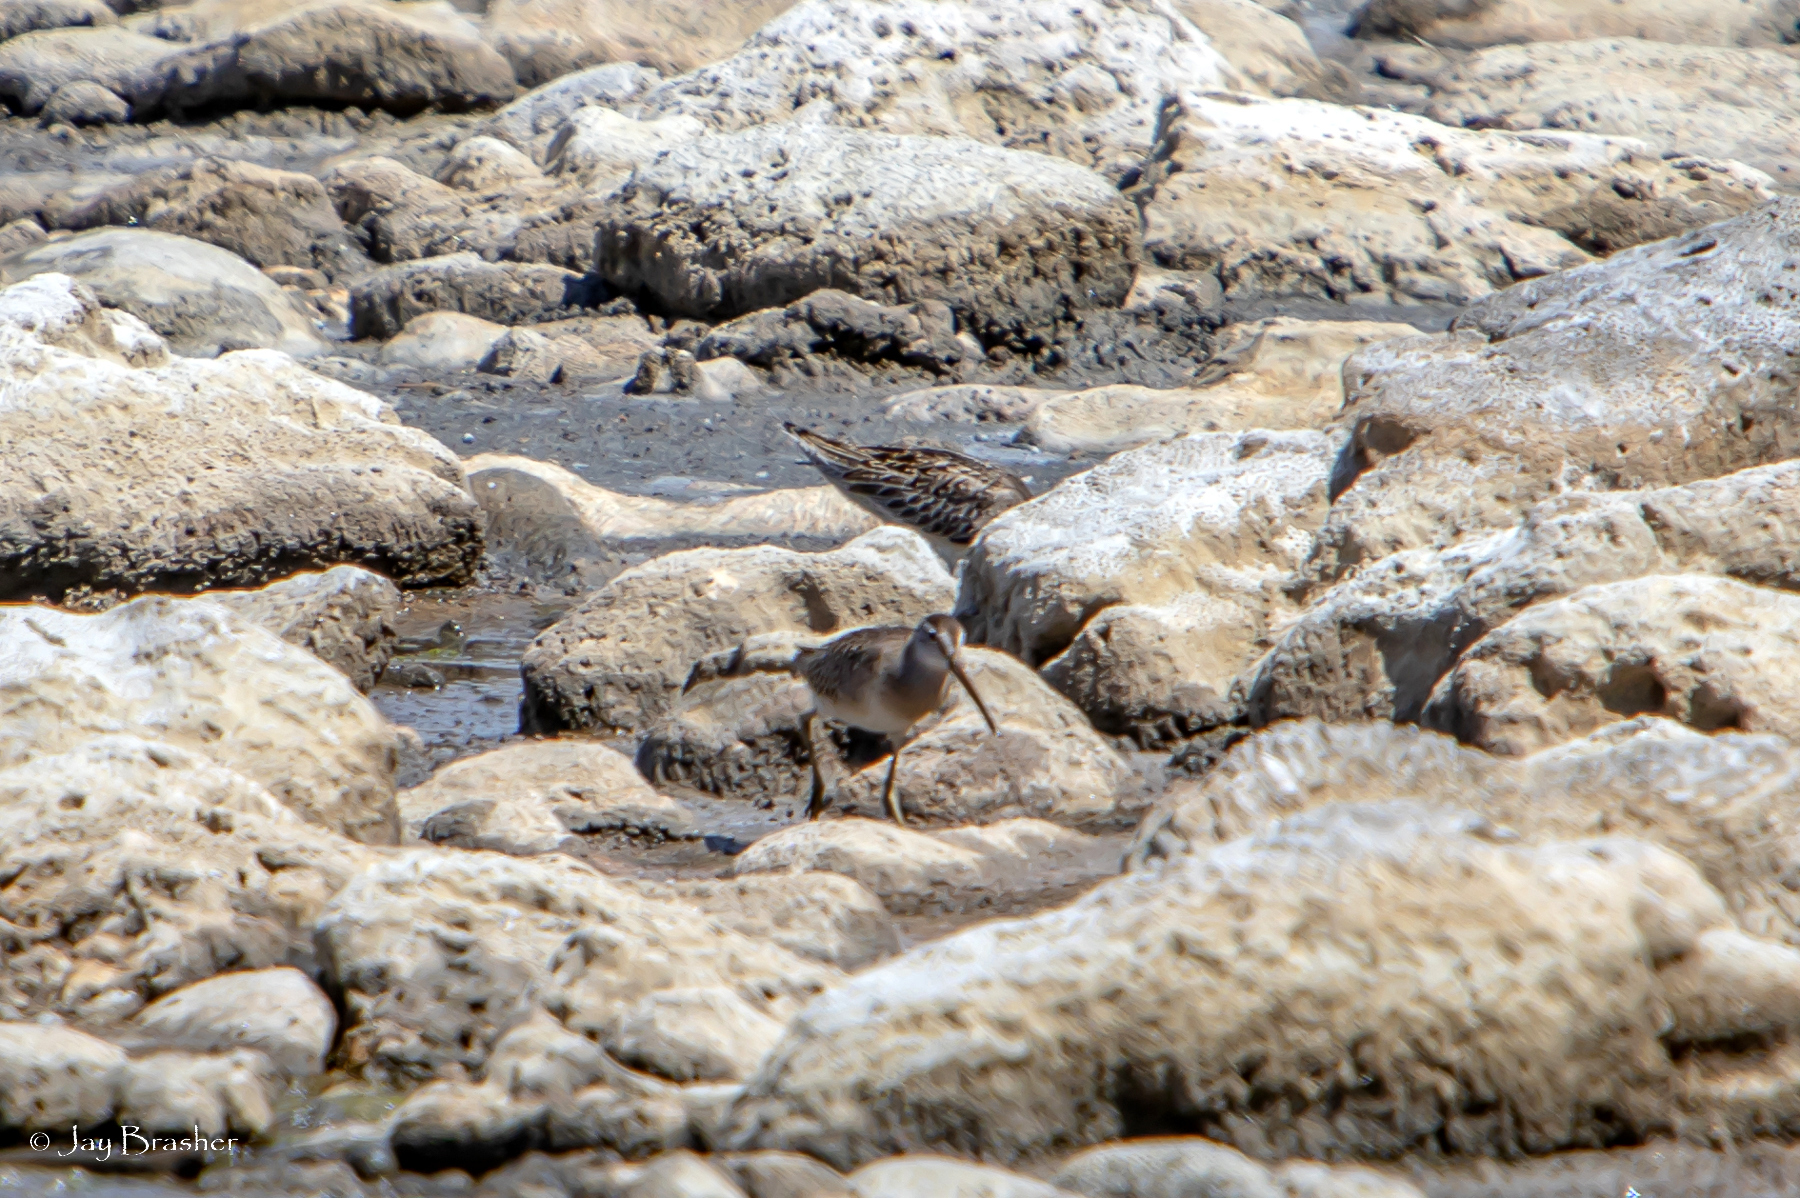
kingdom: Animalia
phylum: Chordata
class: Aves
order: Charadriiformes
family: Scolopacidae
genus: Limnodromus
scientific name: Limnodromus griseus
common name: Short-billed dowitcher
